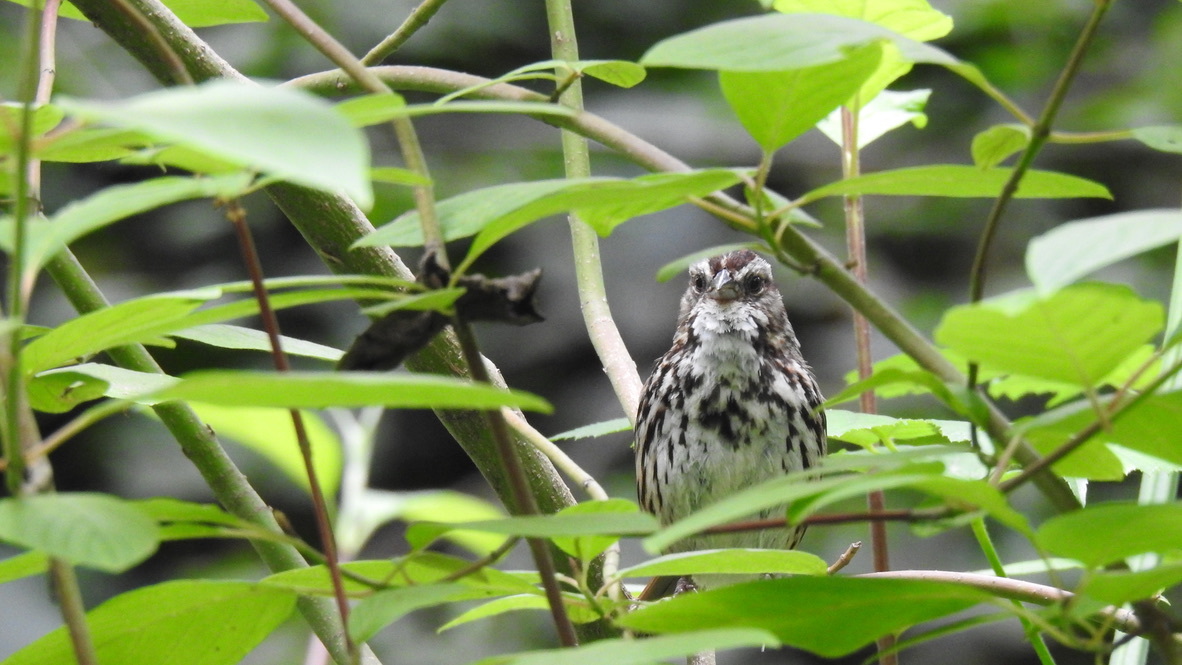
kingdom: Animalia
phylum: Chordata
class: Aves
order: Passeriformes
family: Passerellidae
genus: Melospiza
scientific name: Melospiza melodia
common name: Song sparrow
